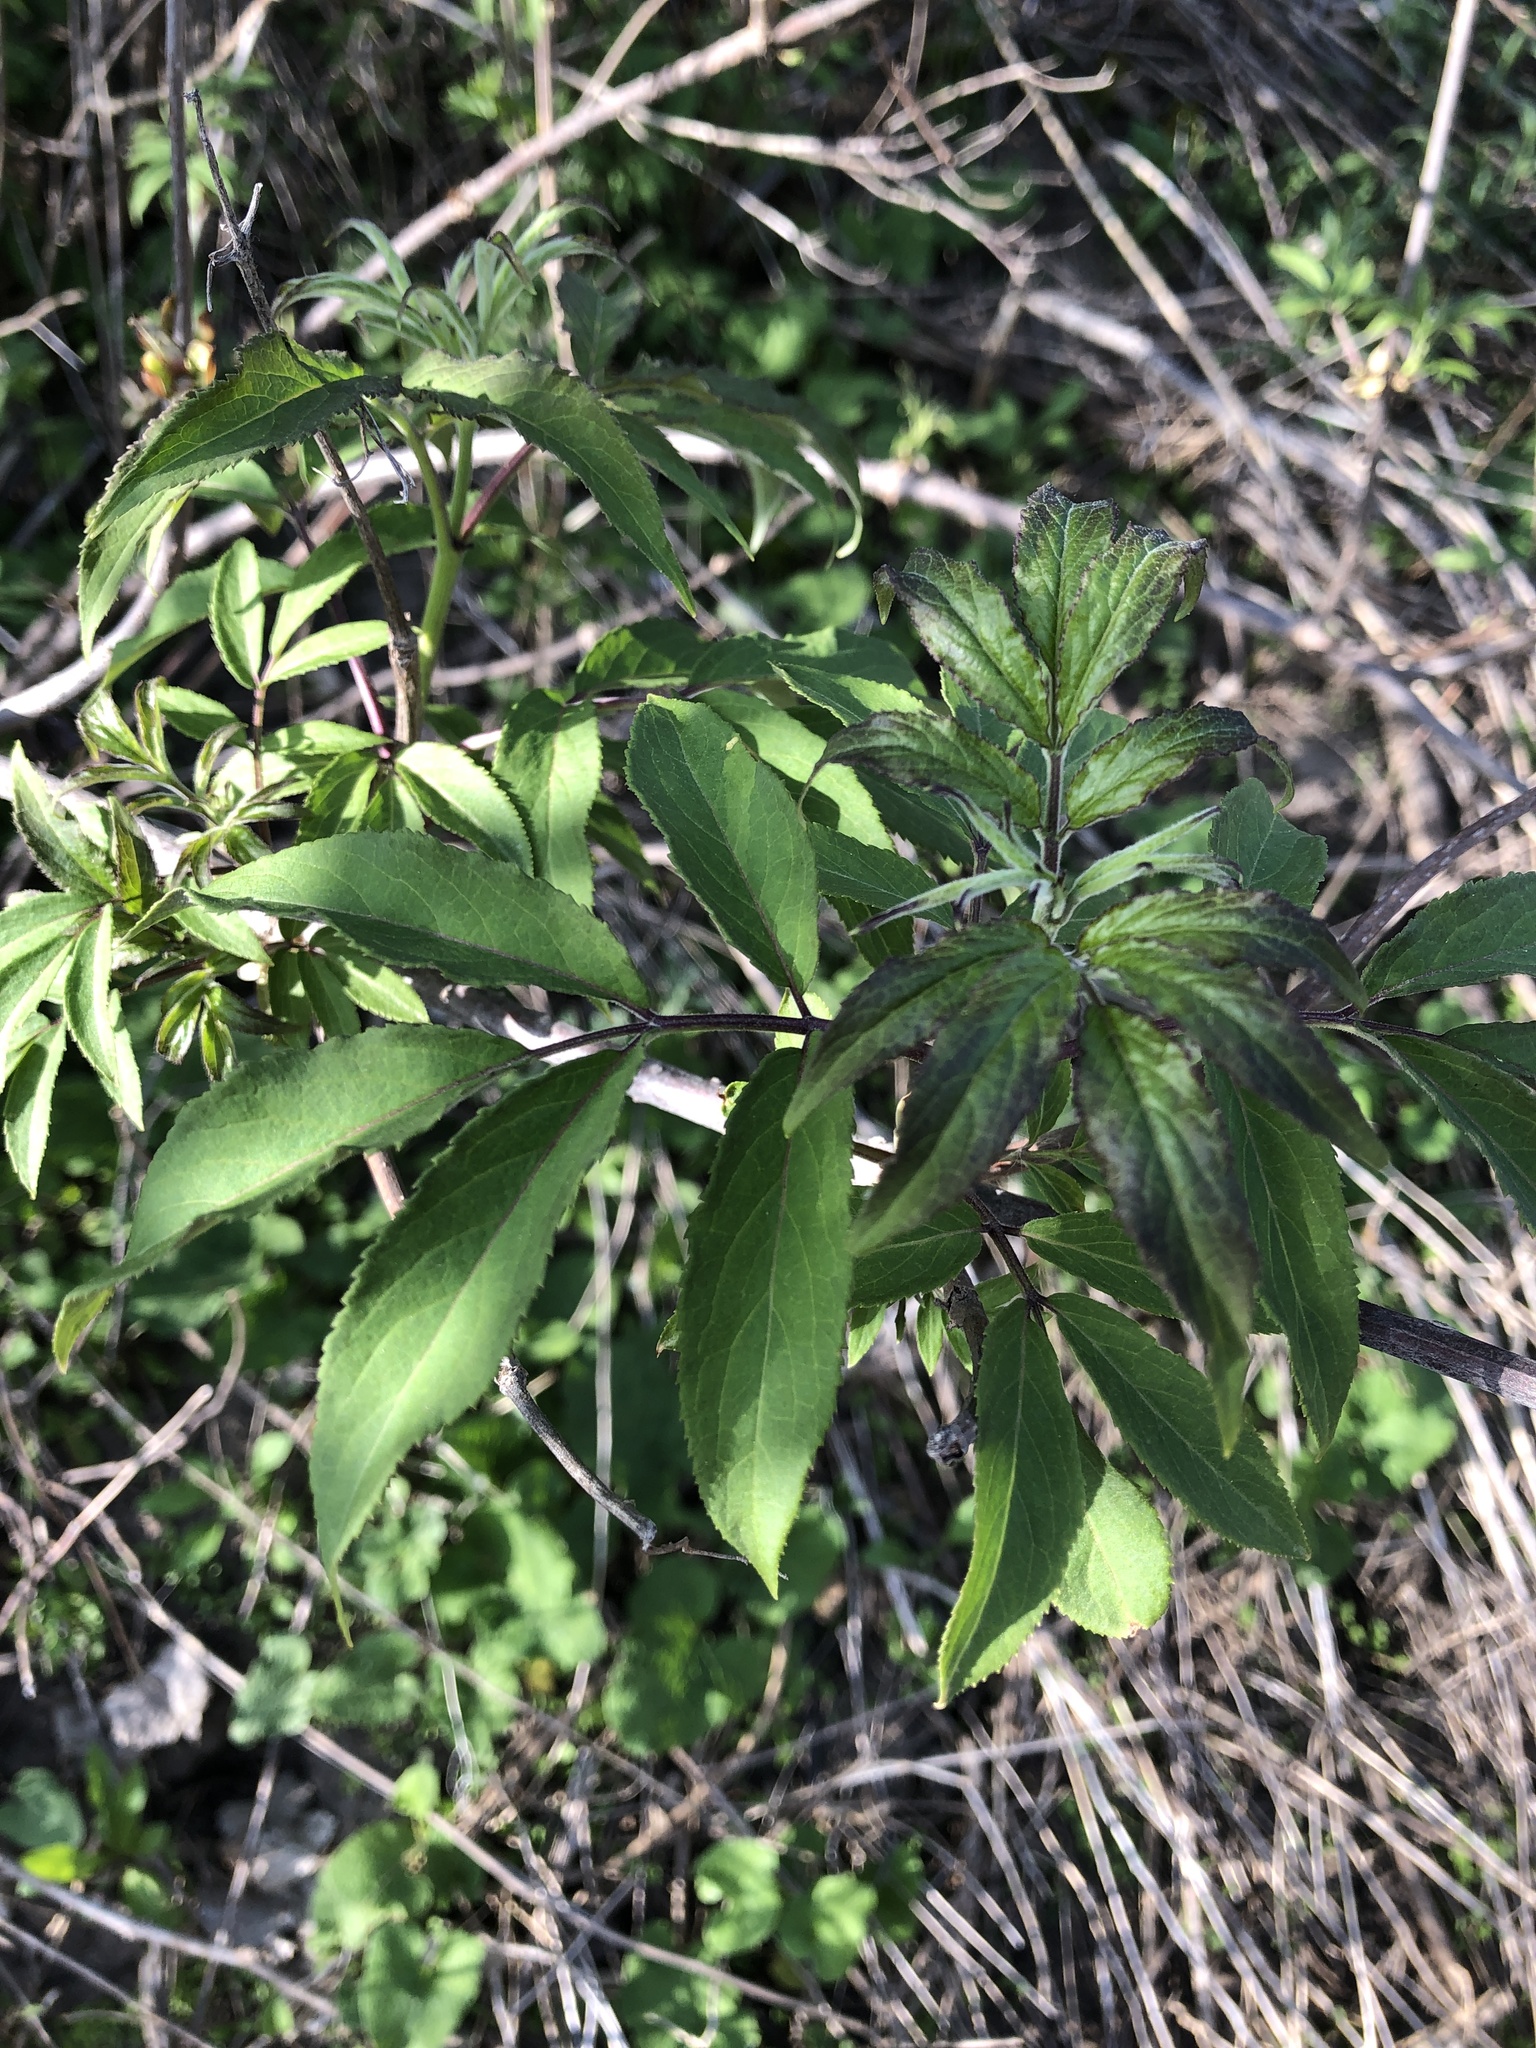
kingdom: Plantae
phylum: Tracheophyta
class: Magnoliopsida
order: Dipsacales
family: Viburnaceae
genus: Sambucus
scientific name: Sambucus racemosa
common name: Red-berried elder
